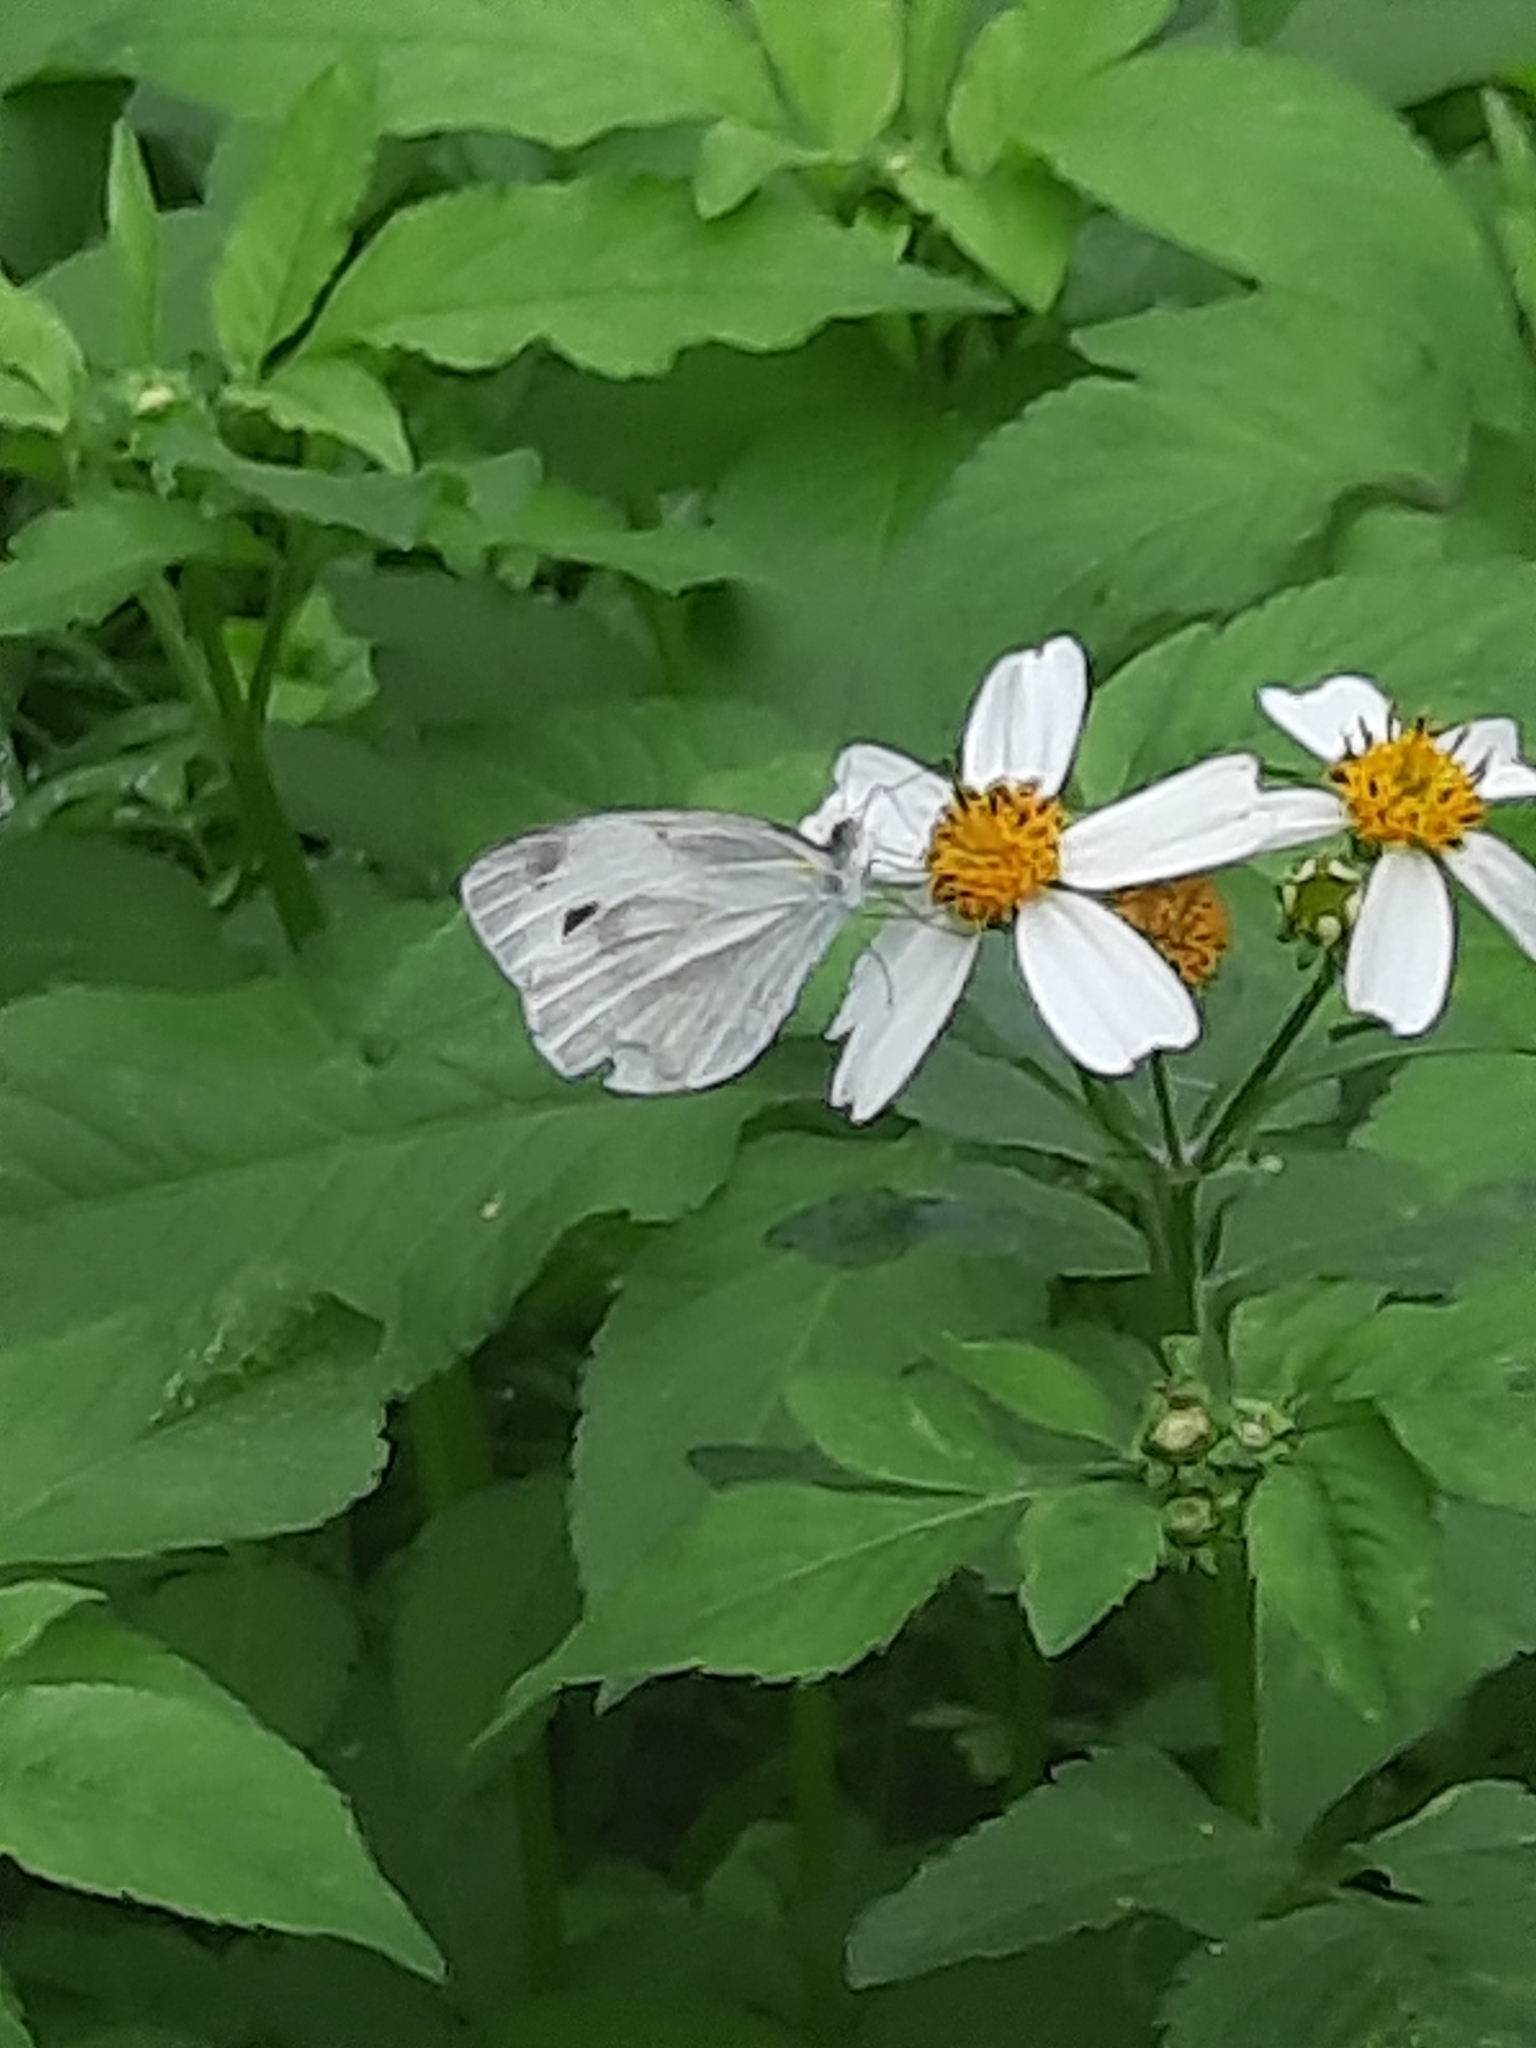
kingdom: Animalia
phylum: Arthropoda
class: Insecta
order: Lepidoptera
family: Pieridae
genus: Pieris
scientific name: Pieris canidia
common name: Indian cabbage white
